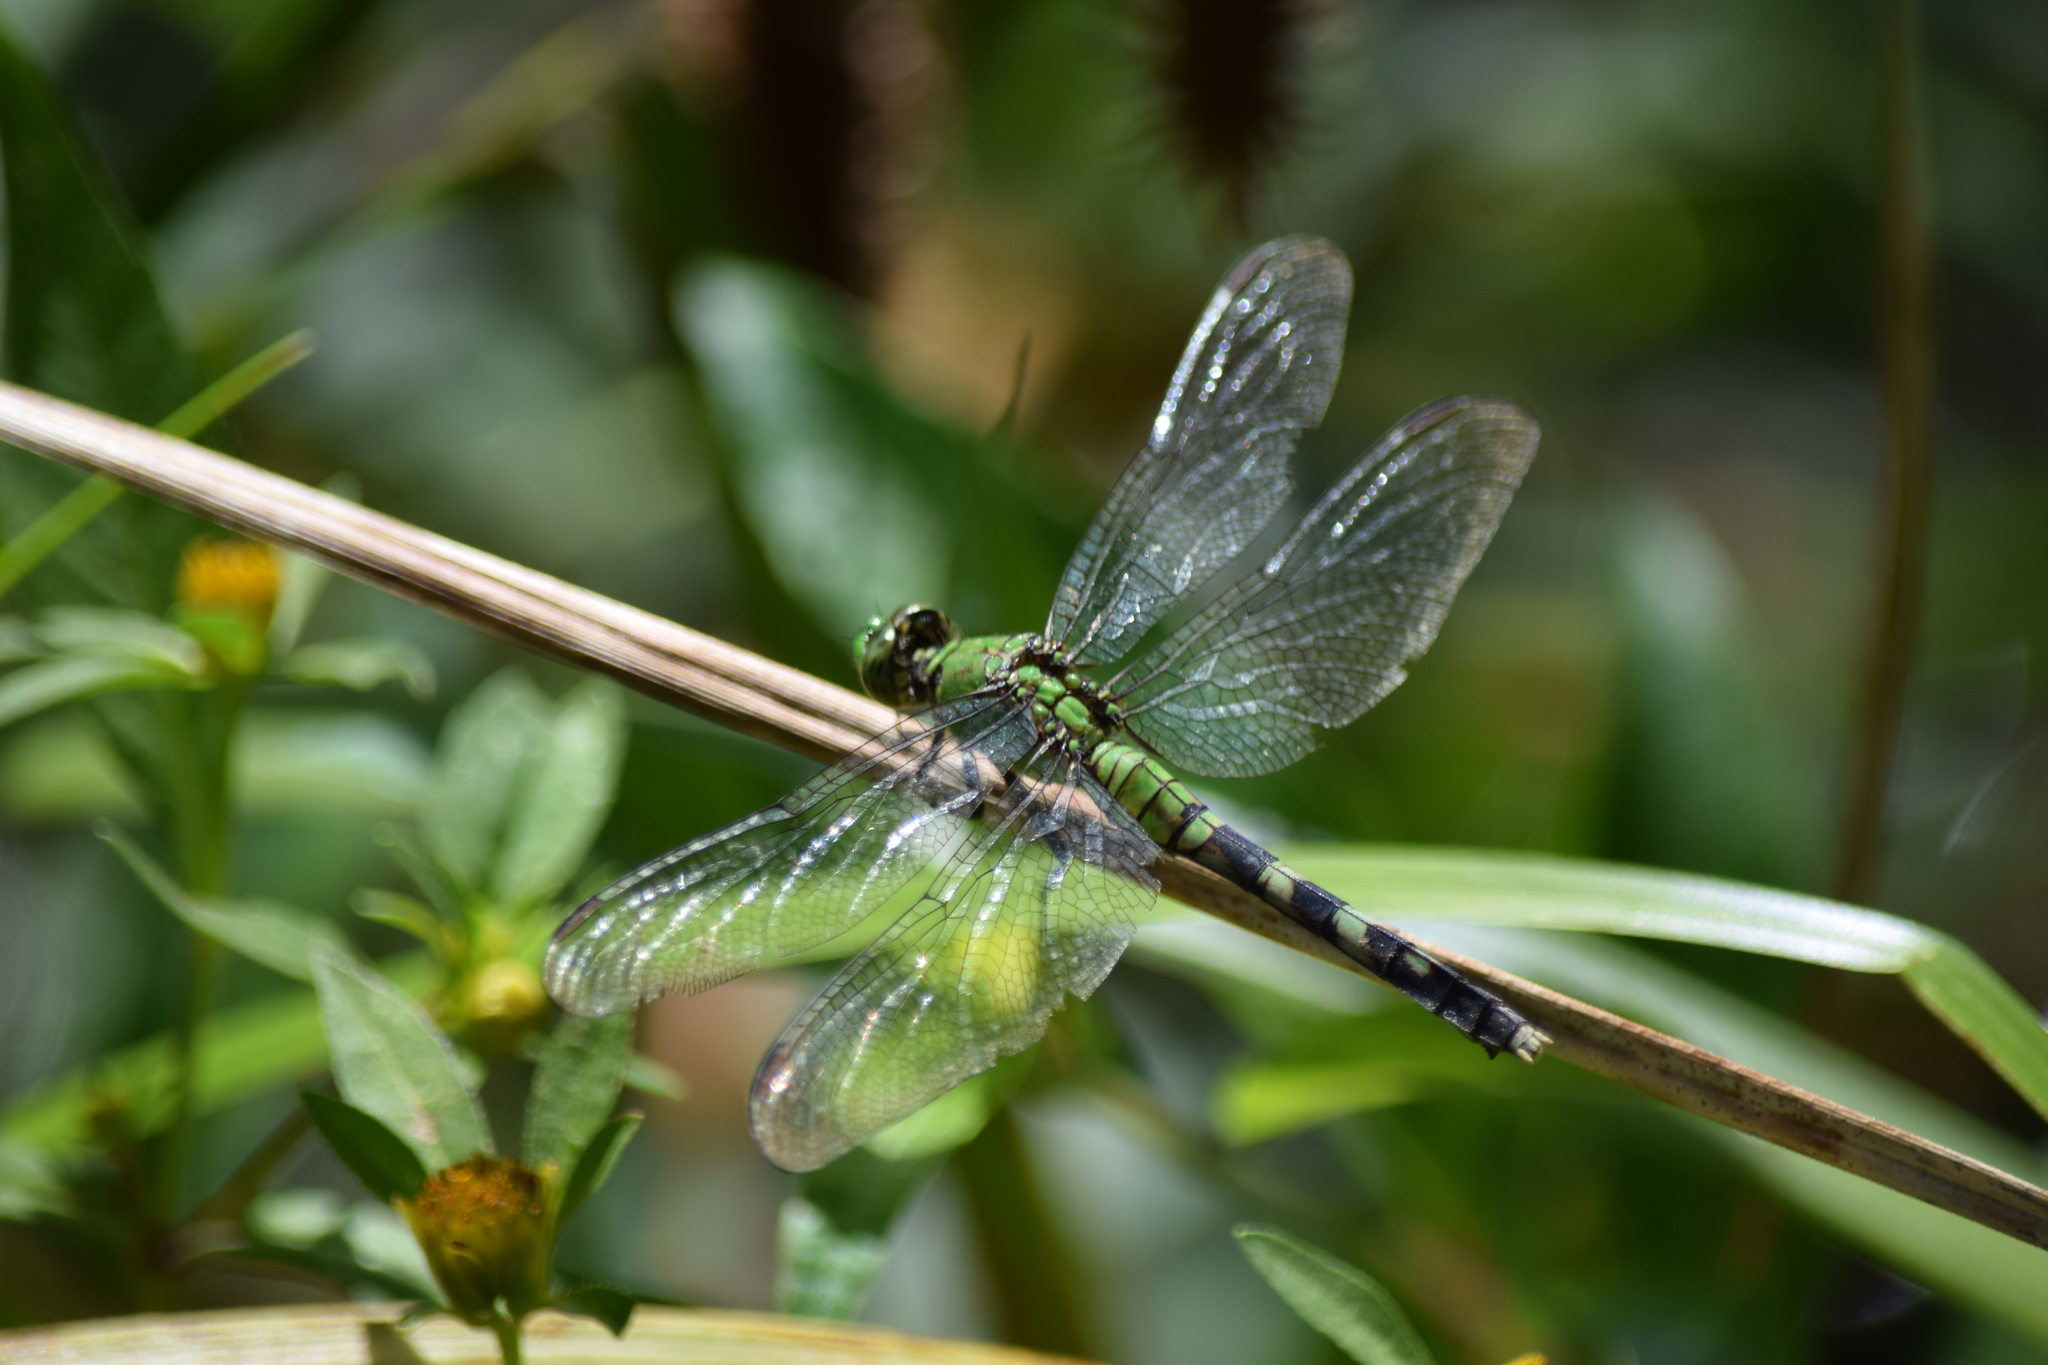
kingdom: Animalia
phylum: Arthropoda
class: Insecta
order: Odonata
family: Libellulidae
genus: Erythemis
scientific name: Erythemis simplicicollis
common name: Eastern pondhawk
